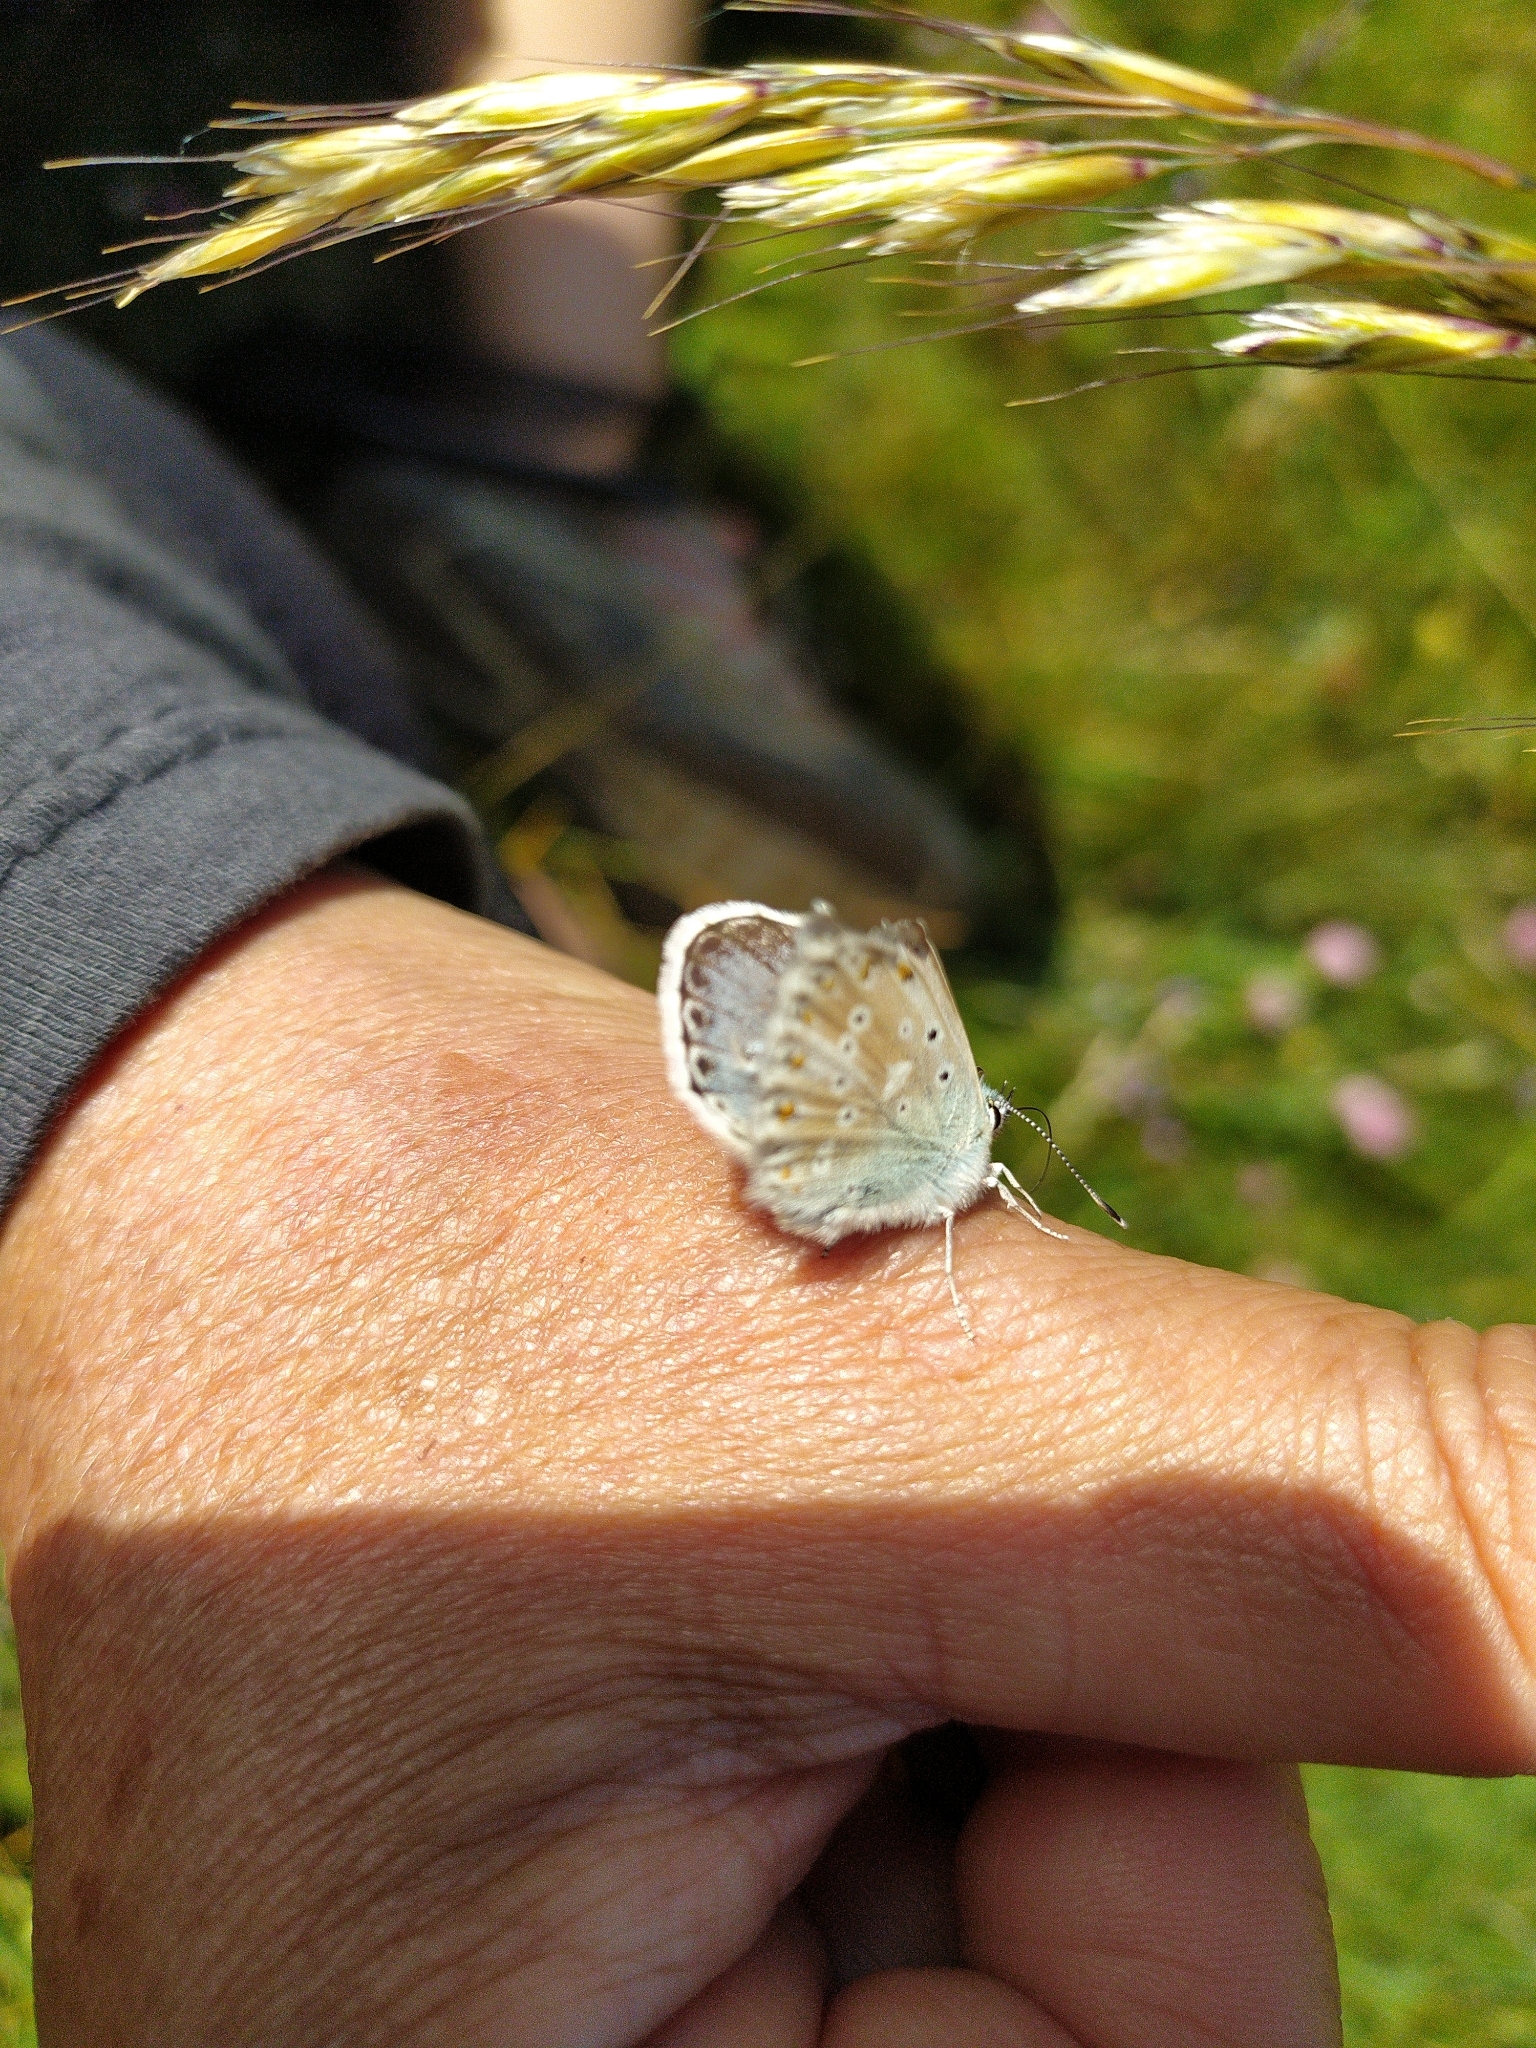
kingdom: Animalia
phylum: Arthropoda
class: Insecta
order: Lepidoptera
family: Lycaenidae
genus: Lysandra
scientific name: Lysandra coridon
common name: Chalkhill blue
